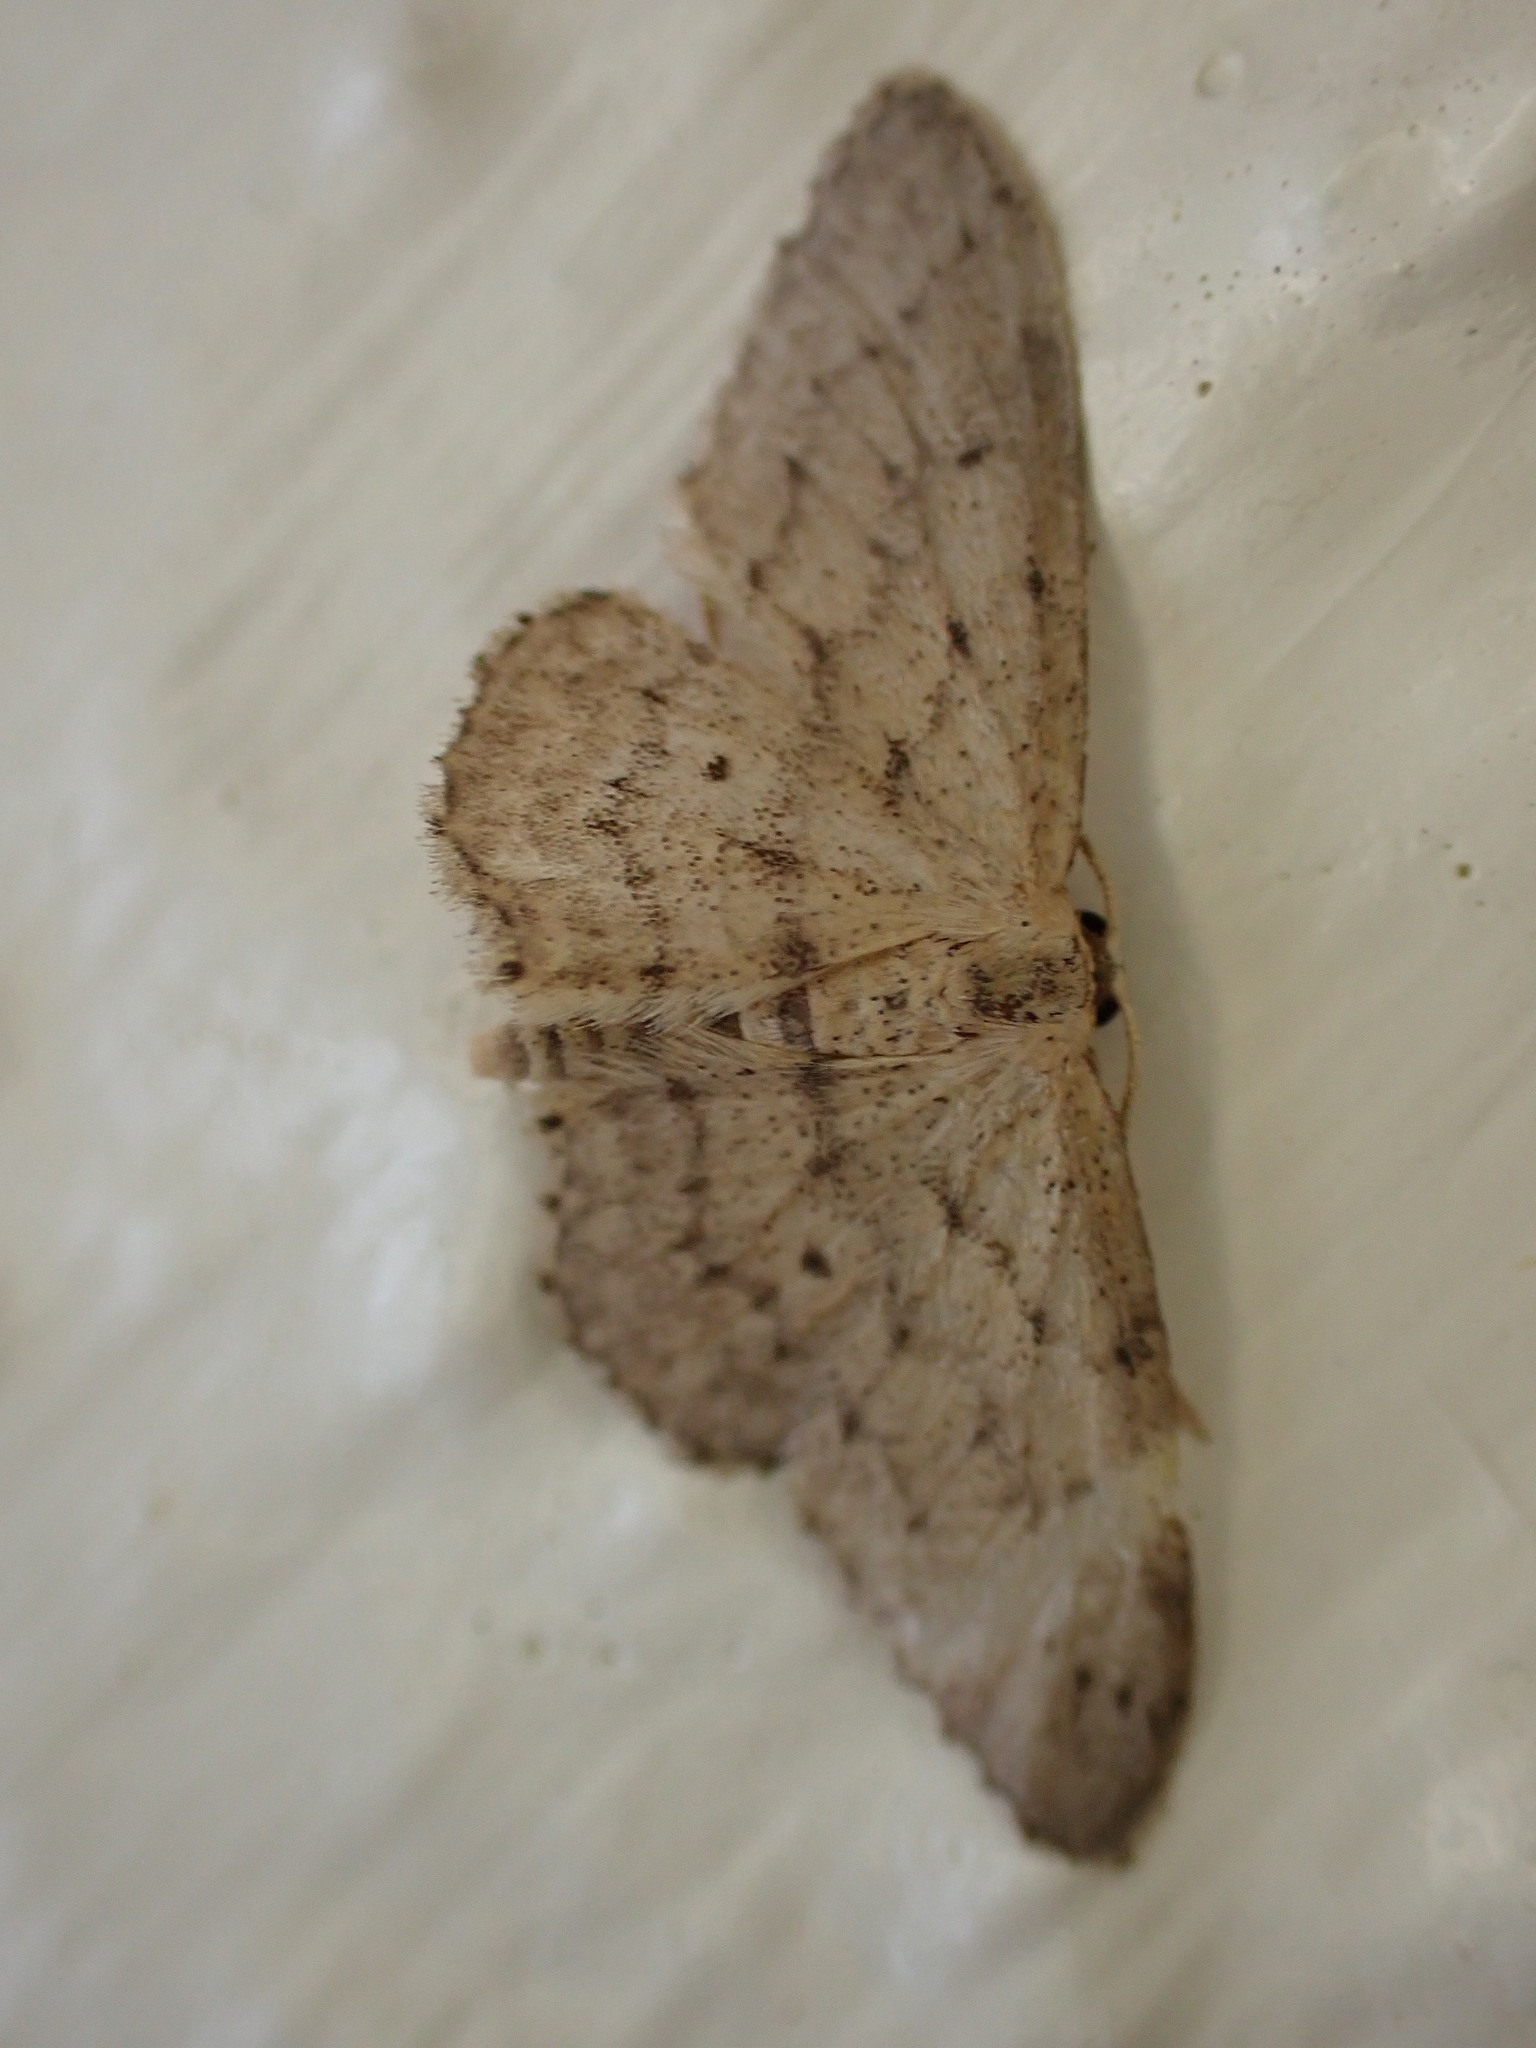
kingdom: Animalia
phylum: Arthropoda
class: Insecta
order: Lepidoptera
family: Geometridae
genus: Idaea
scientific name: Idaea seriata
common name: Small dusty wave
